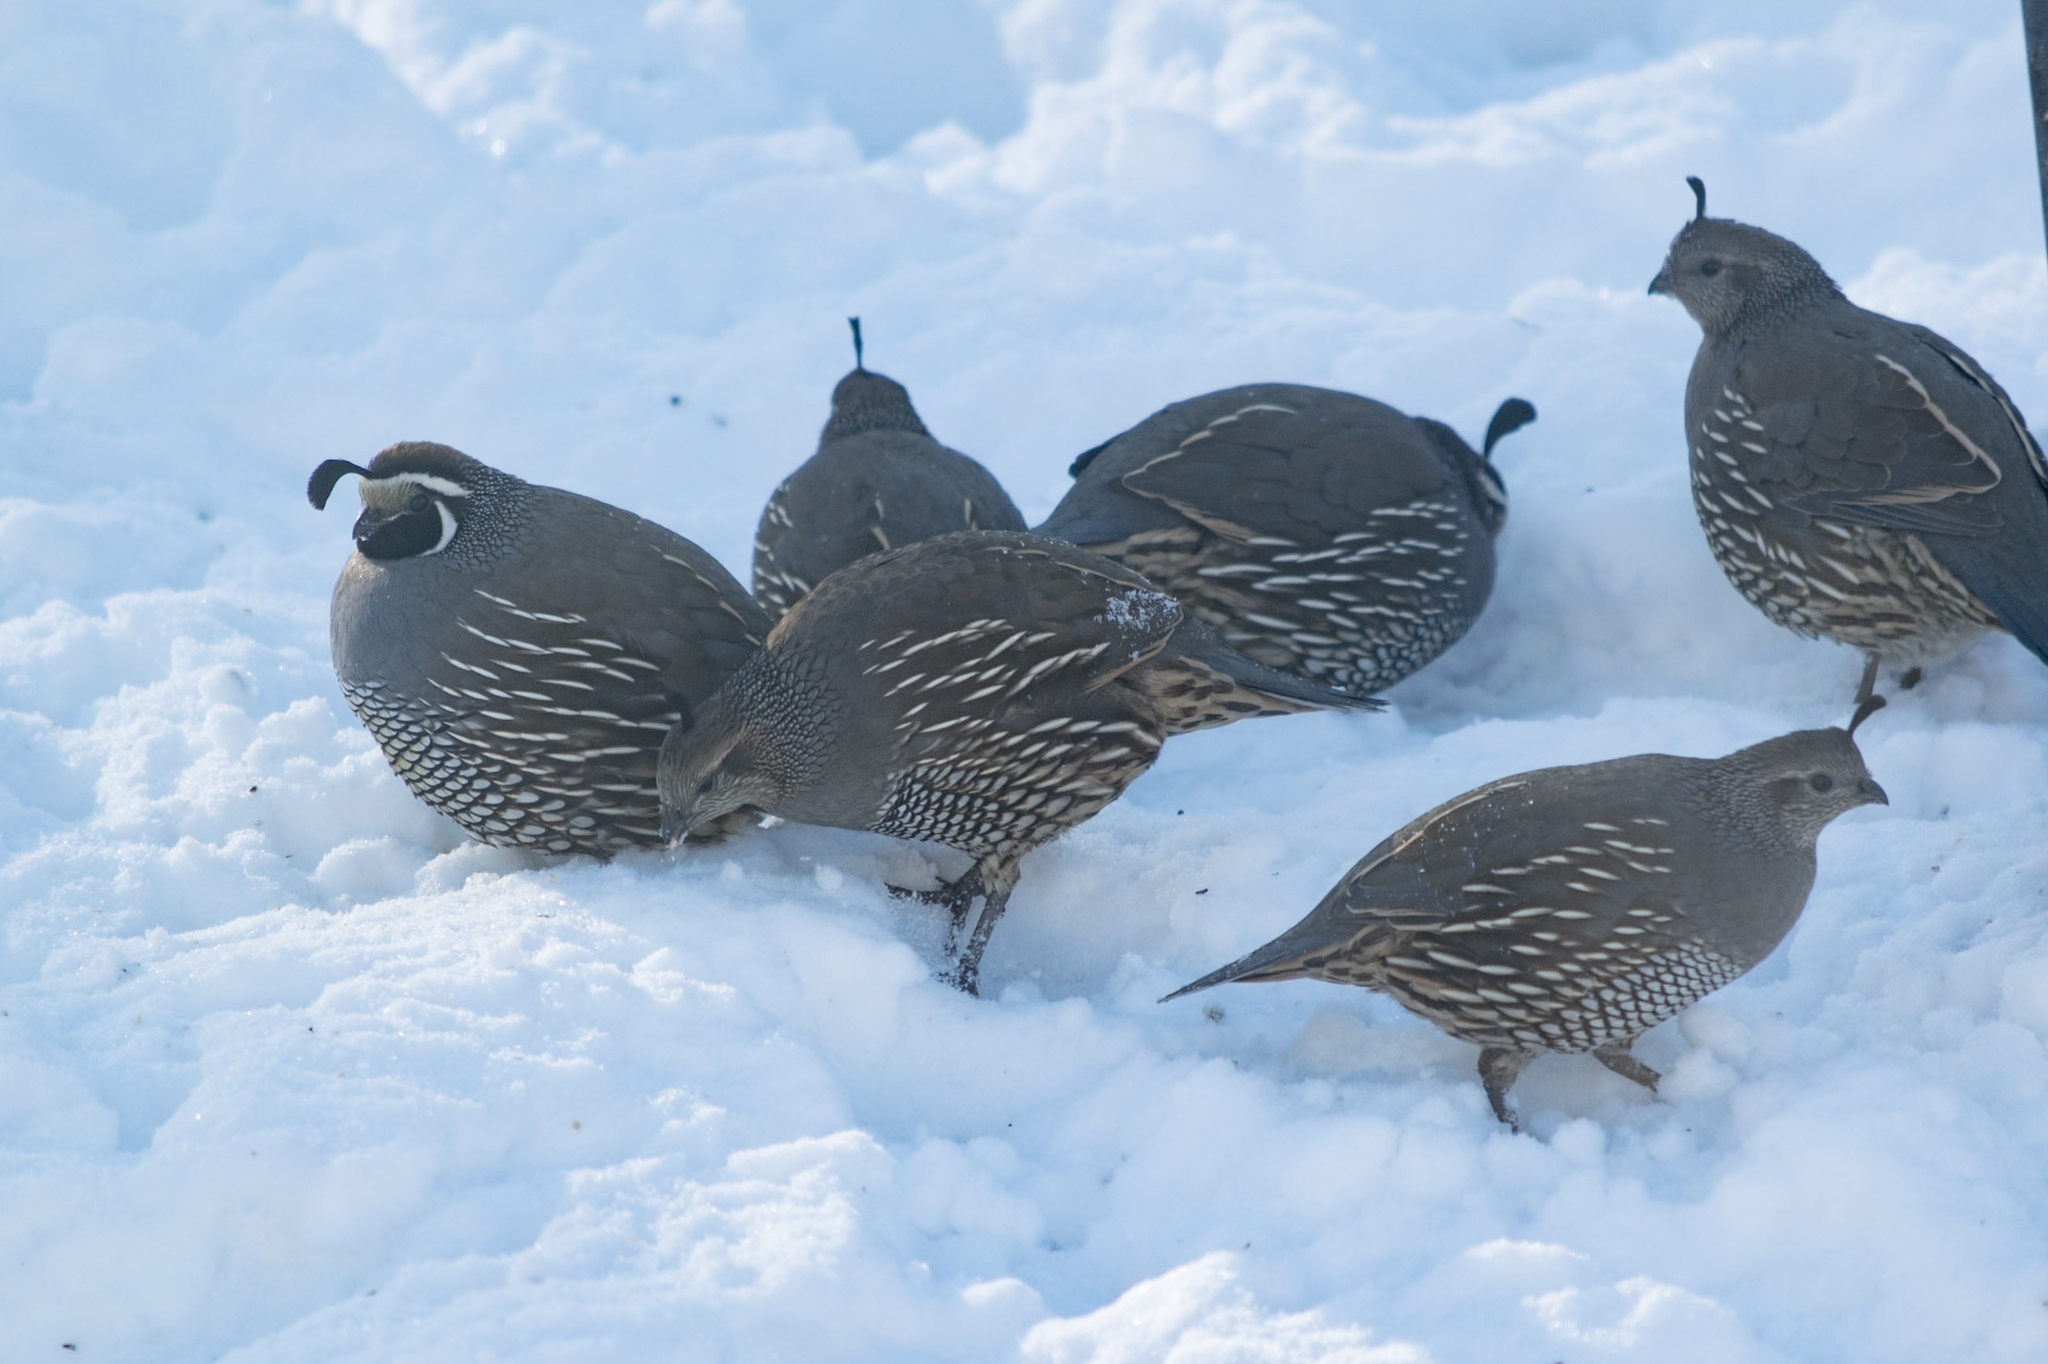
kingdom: Animalia
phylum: Chordata
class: Aves
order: Galliformes
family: Odontophoridae
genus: Callipepla
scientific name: Callipepla californica
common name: California quail
